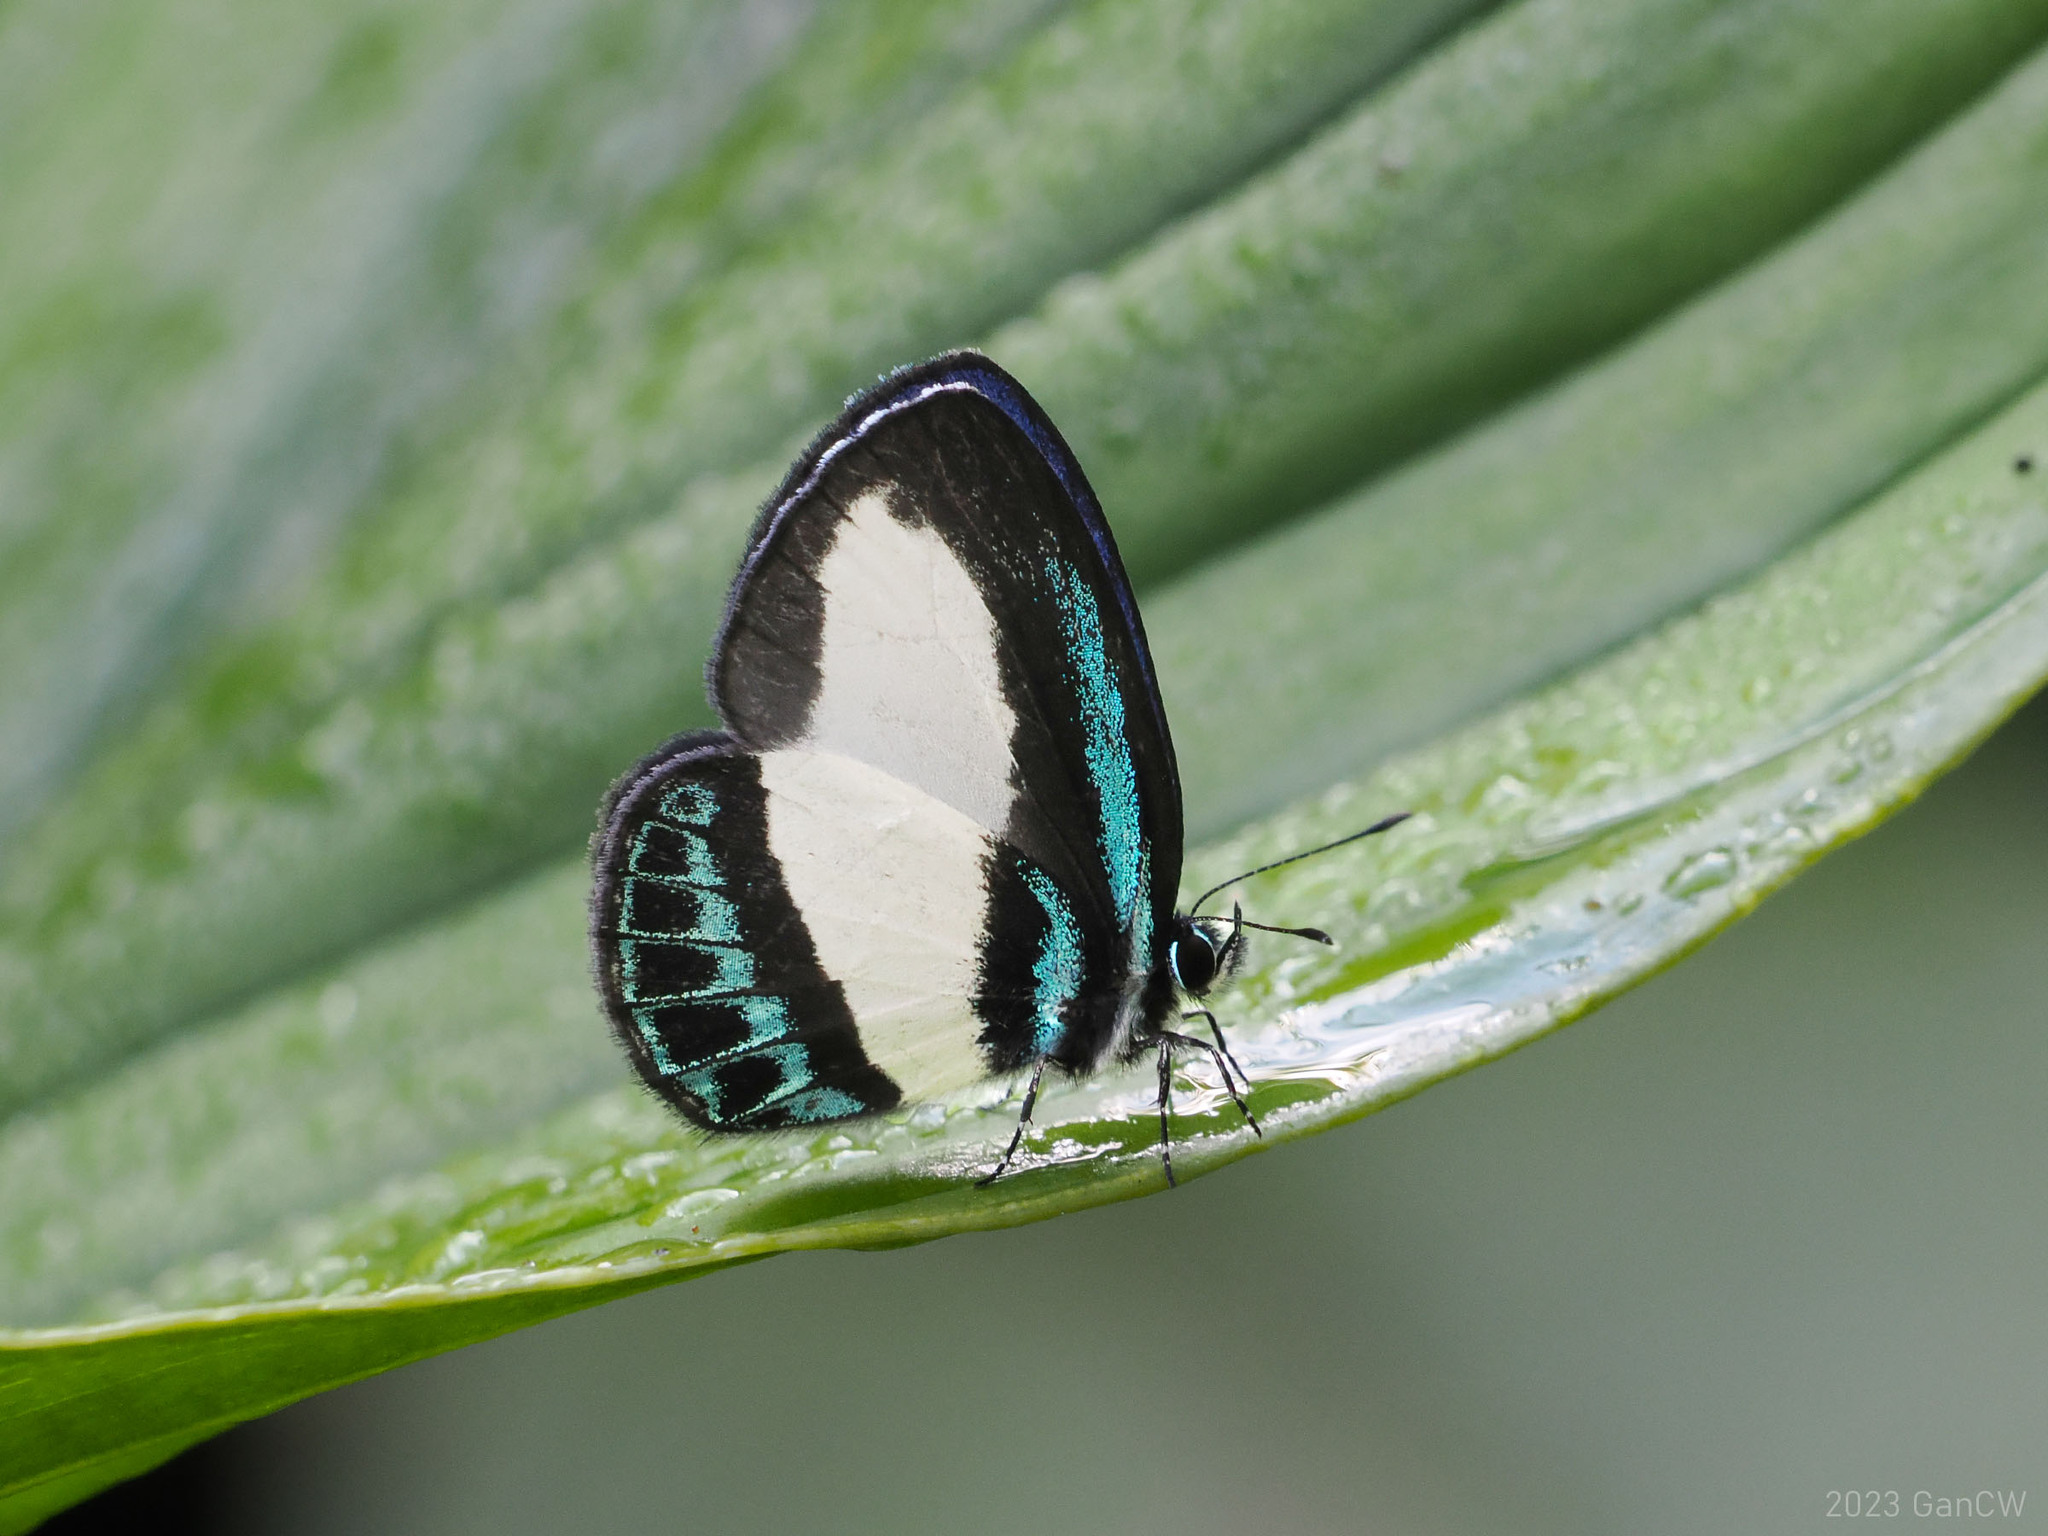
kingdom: Animalia
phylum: Arthropoda
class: Insecta
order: Lepidoptera
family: Lycaenidae
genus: Psychonotis
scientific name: Psychonotis caelius
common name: Small green banded blue
